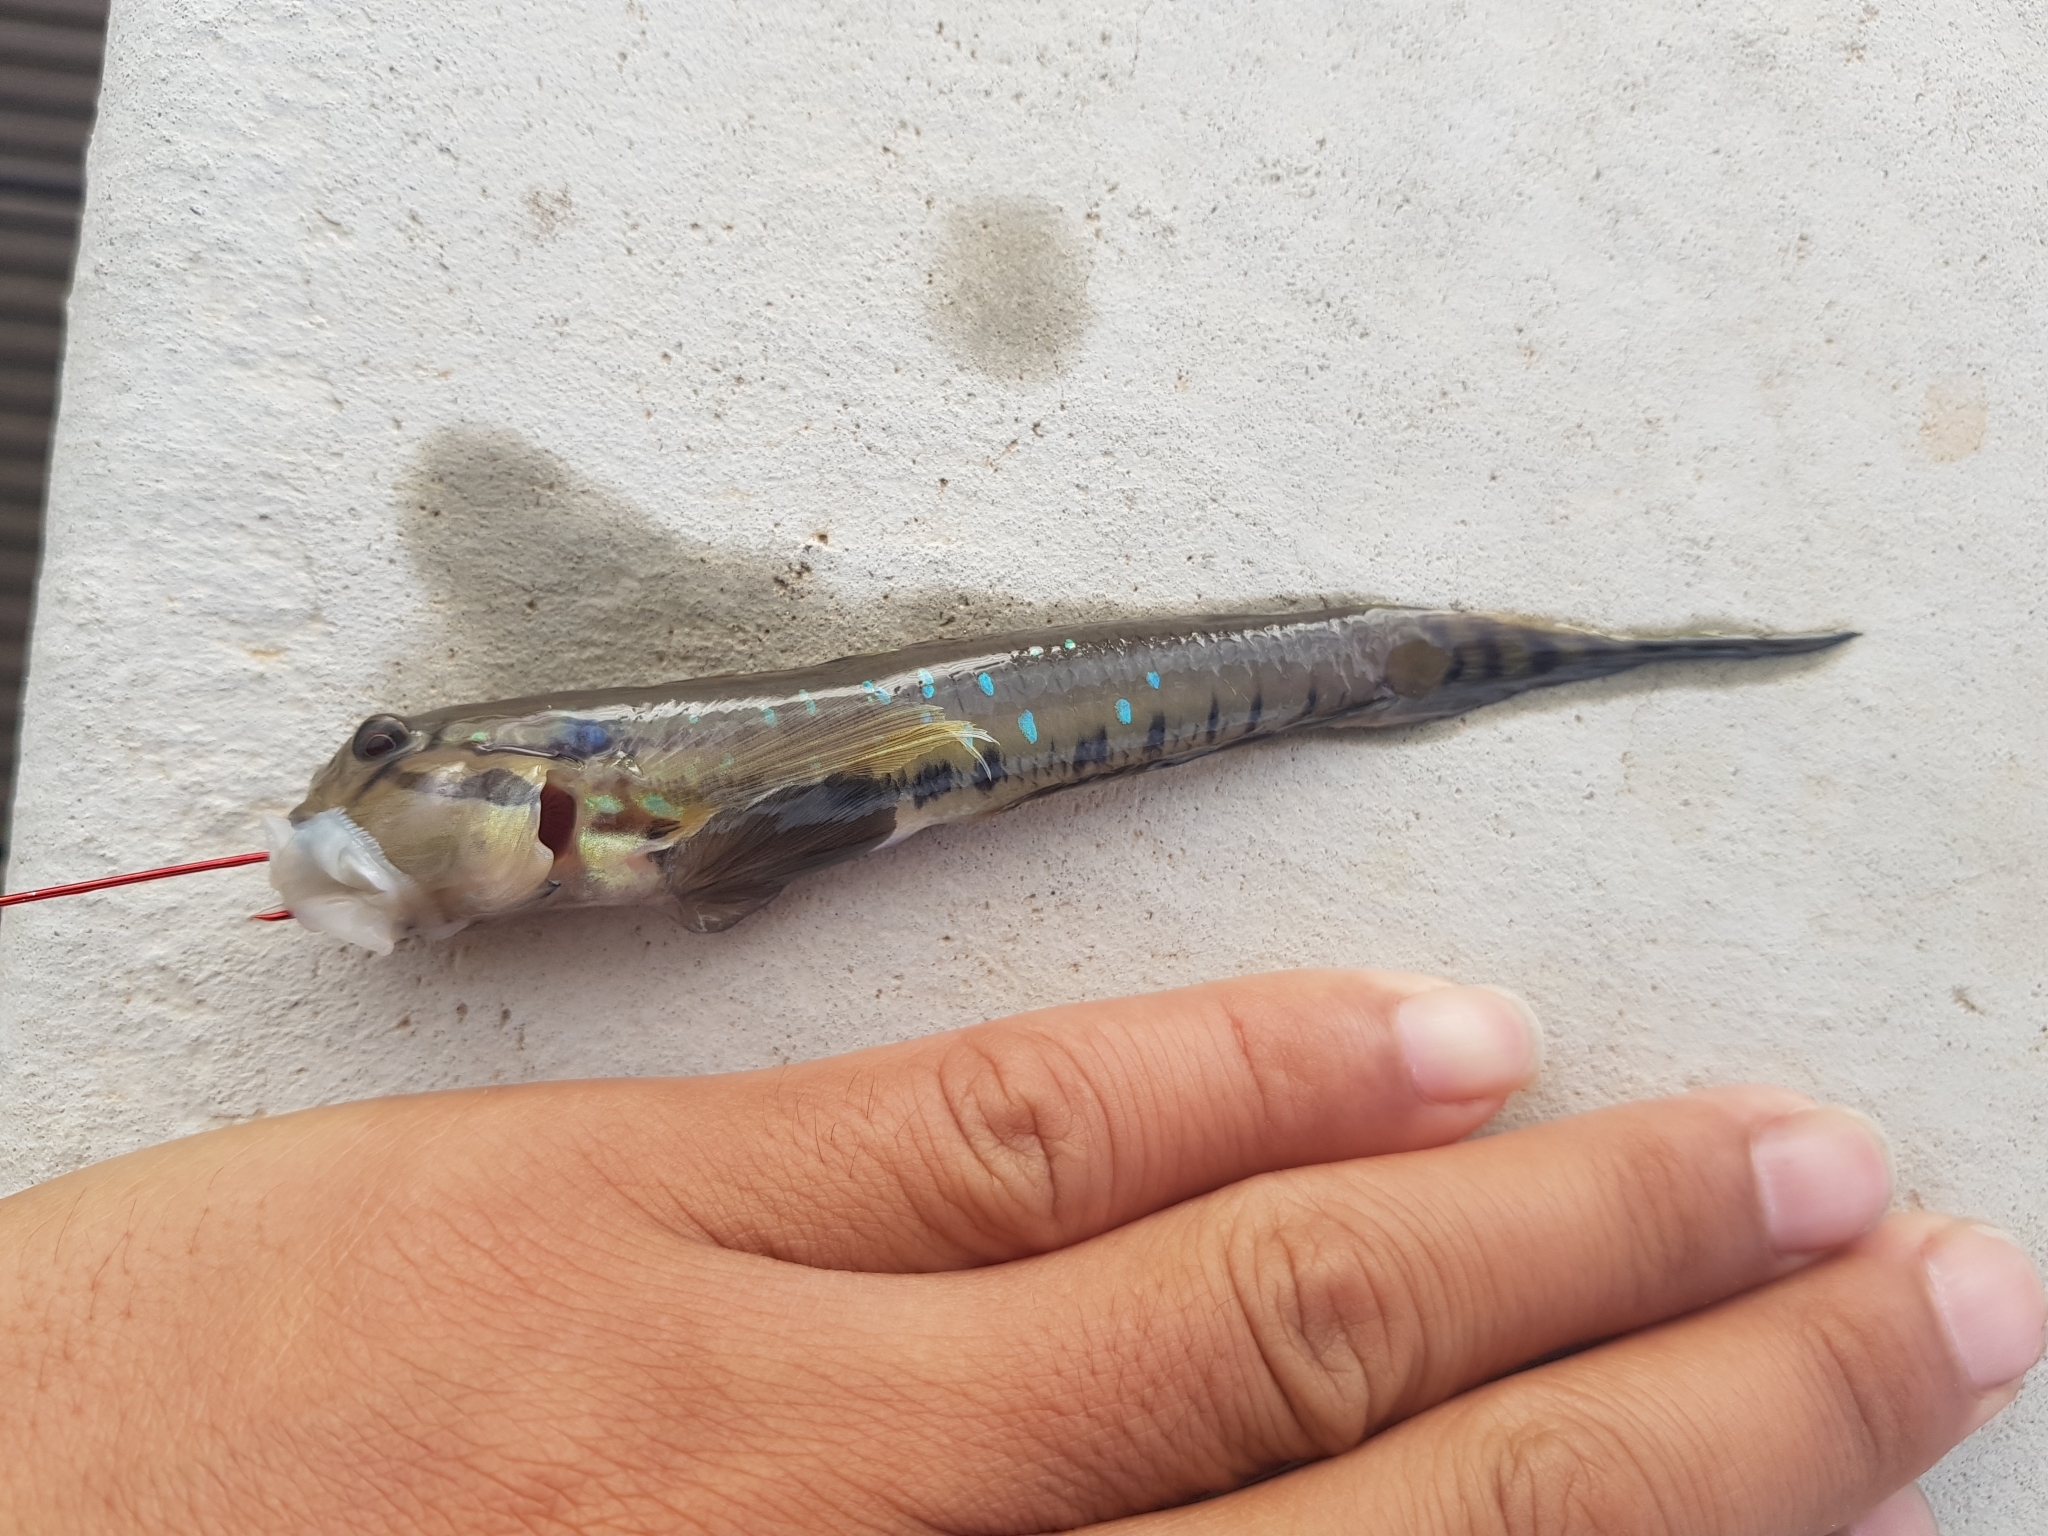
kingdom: Animalia
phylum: Chordata
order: Perciformes
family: Gobiidae
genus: Arenigobius
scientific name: Arenigobius bifrenatus
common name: Bridled goby
